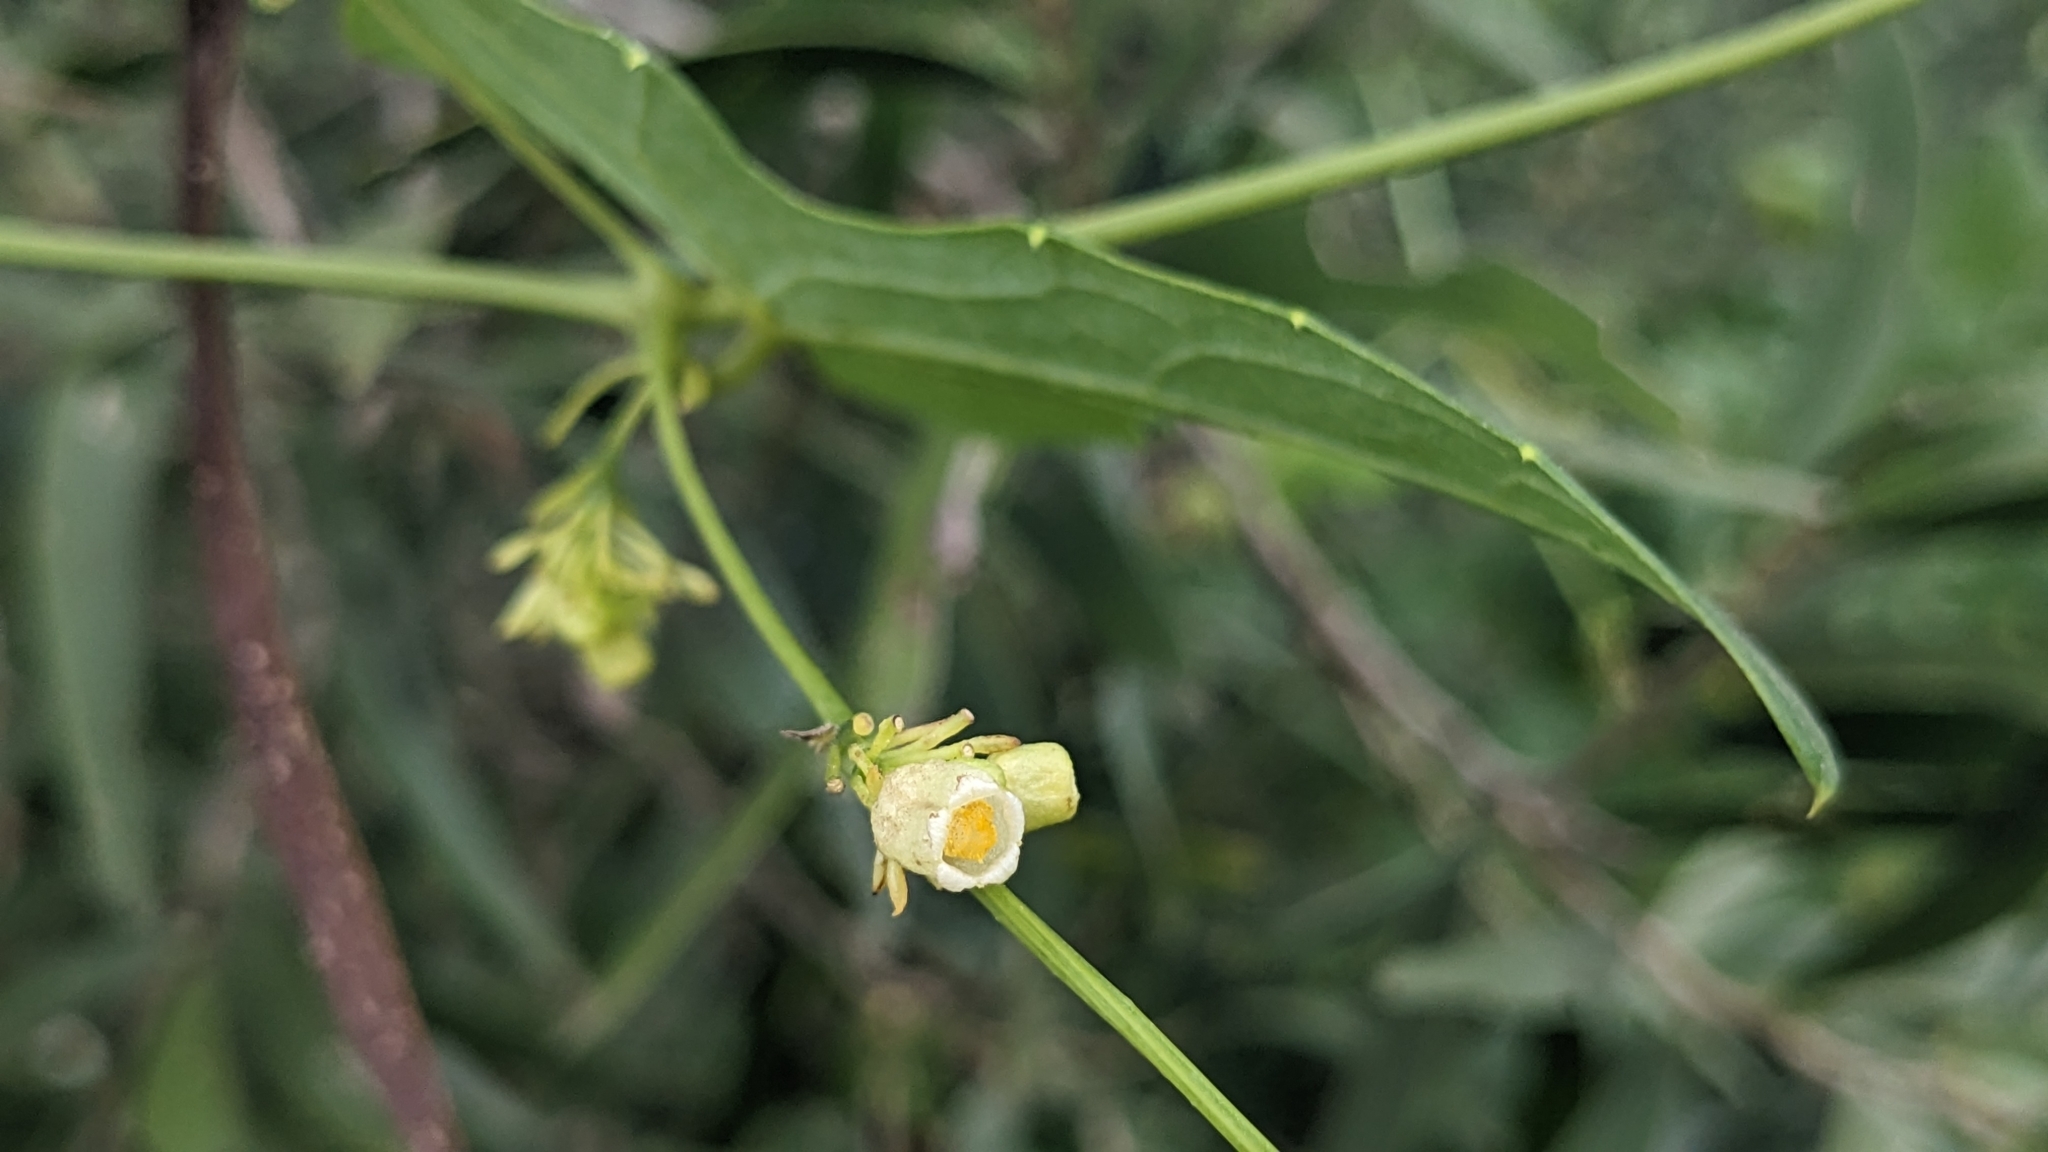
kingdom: Plantae
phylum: Tracheophyta
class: Magnoliopsida
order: Cucurbitales
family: Cucurbitaceae
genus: Solena
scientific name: Solena amplexicaulis
